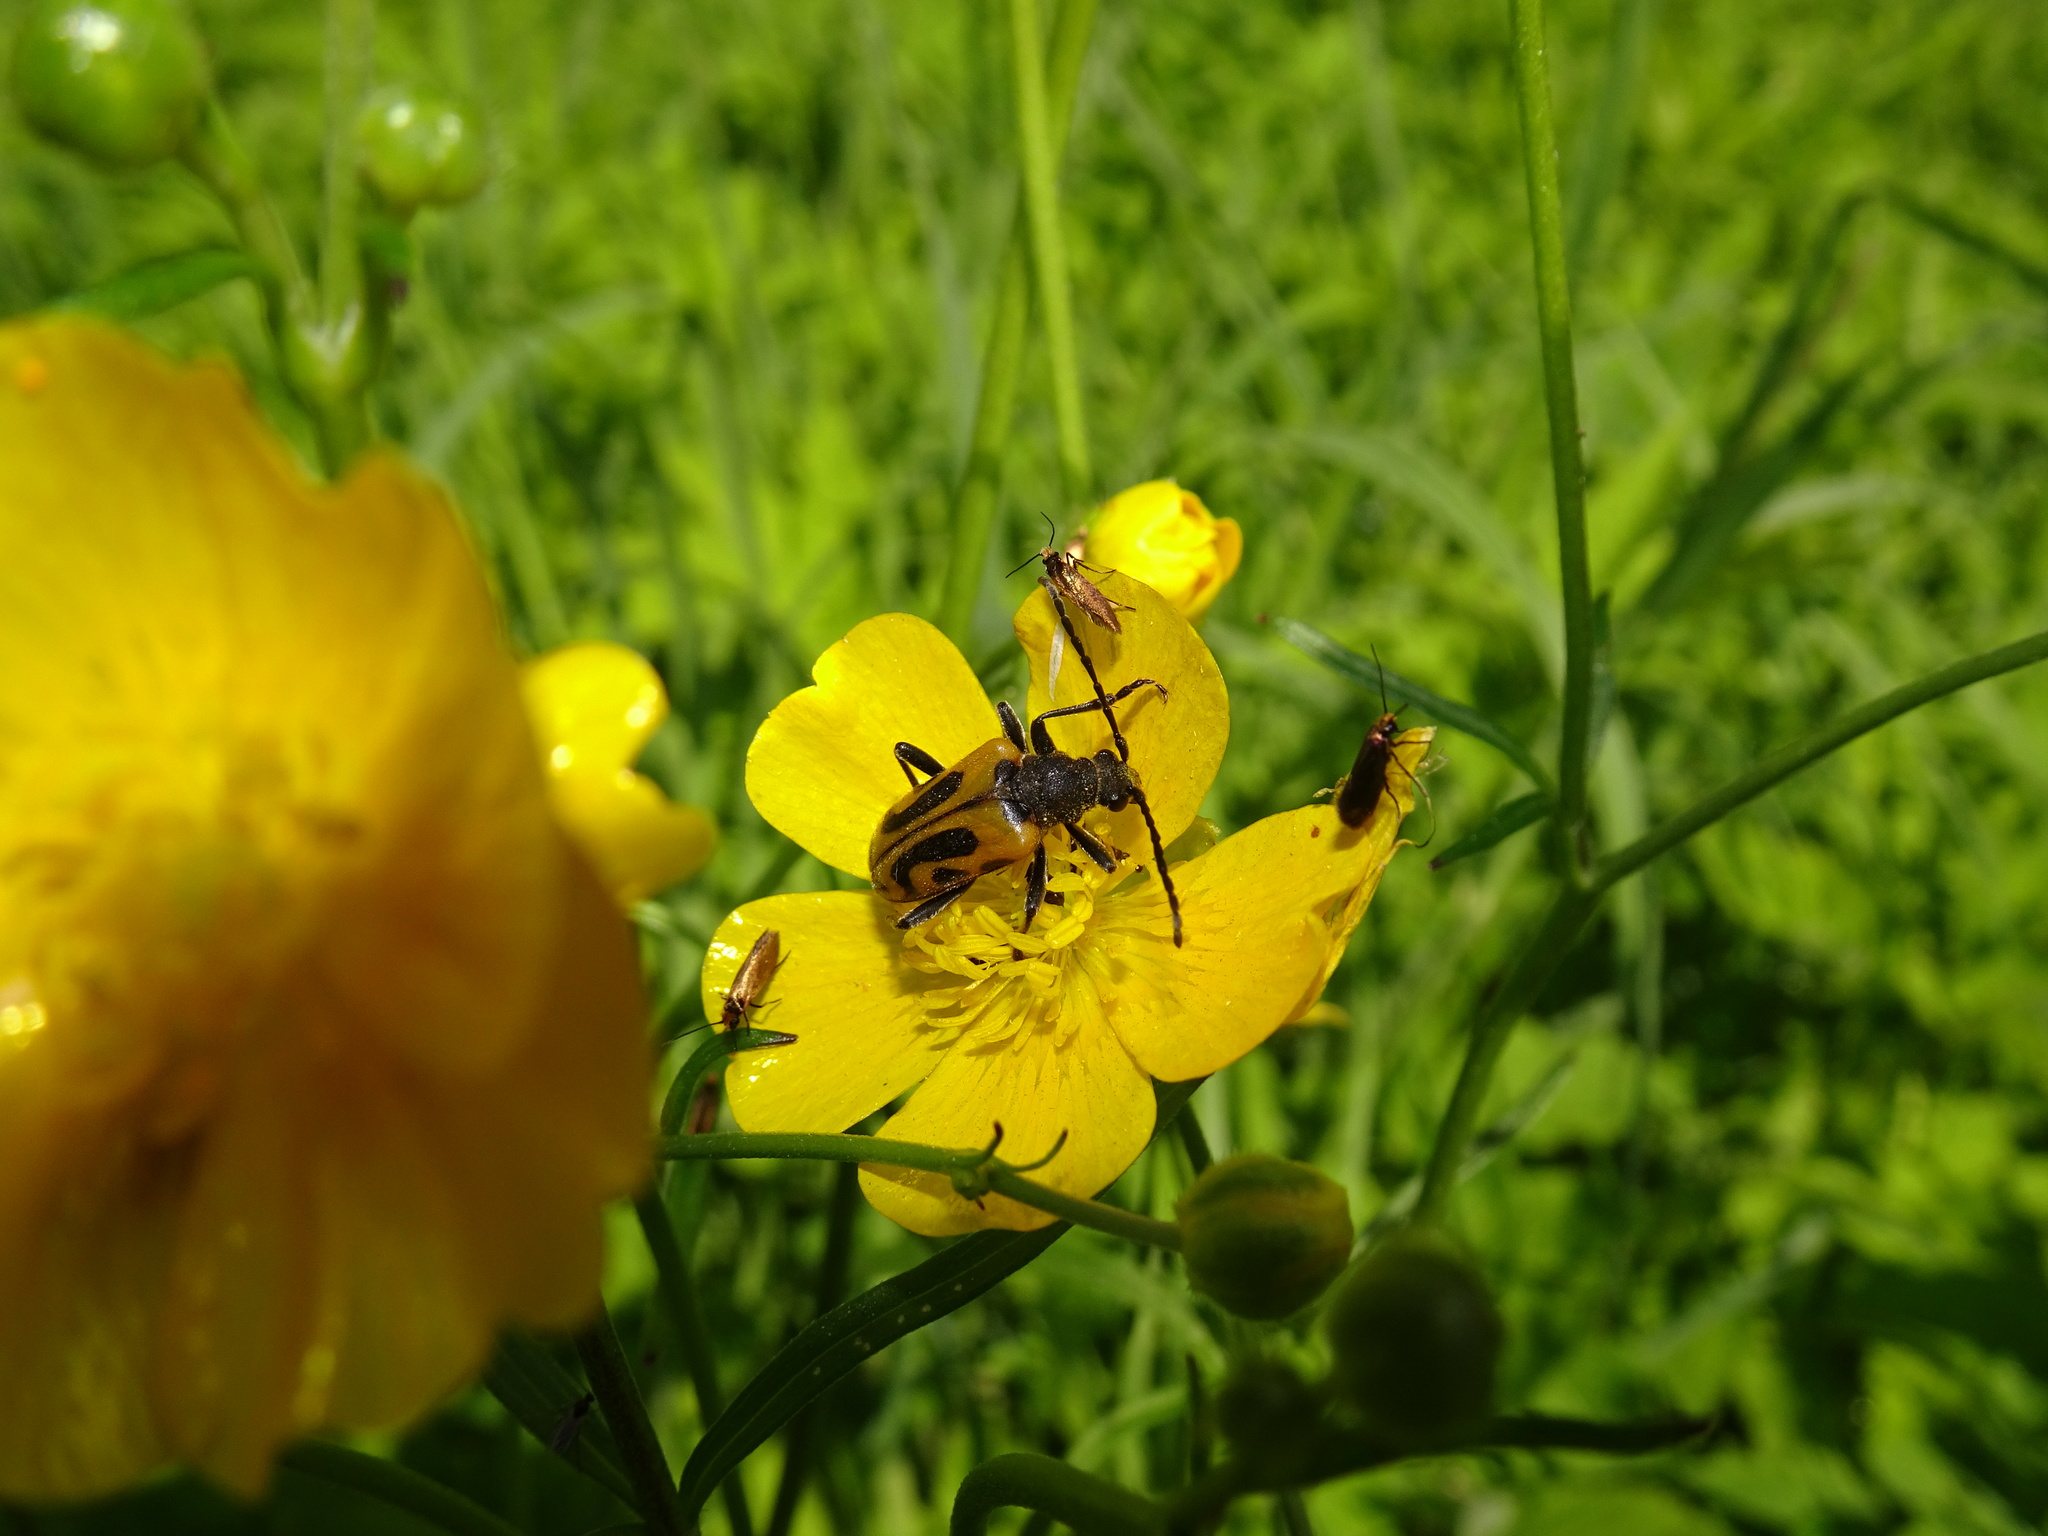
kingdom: Animalia
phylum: Arthropoda
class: Insecta
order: Coleoptera
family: Cerambycidae
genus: Brachyta
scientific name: Brachyta interrogationis
